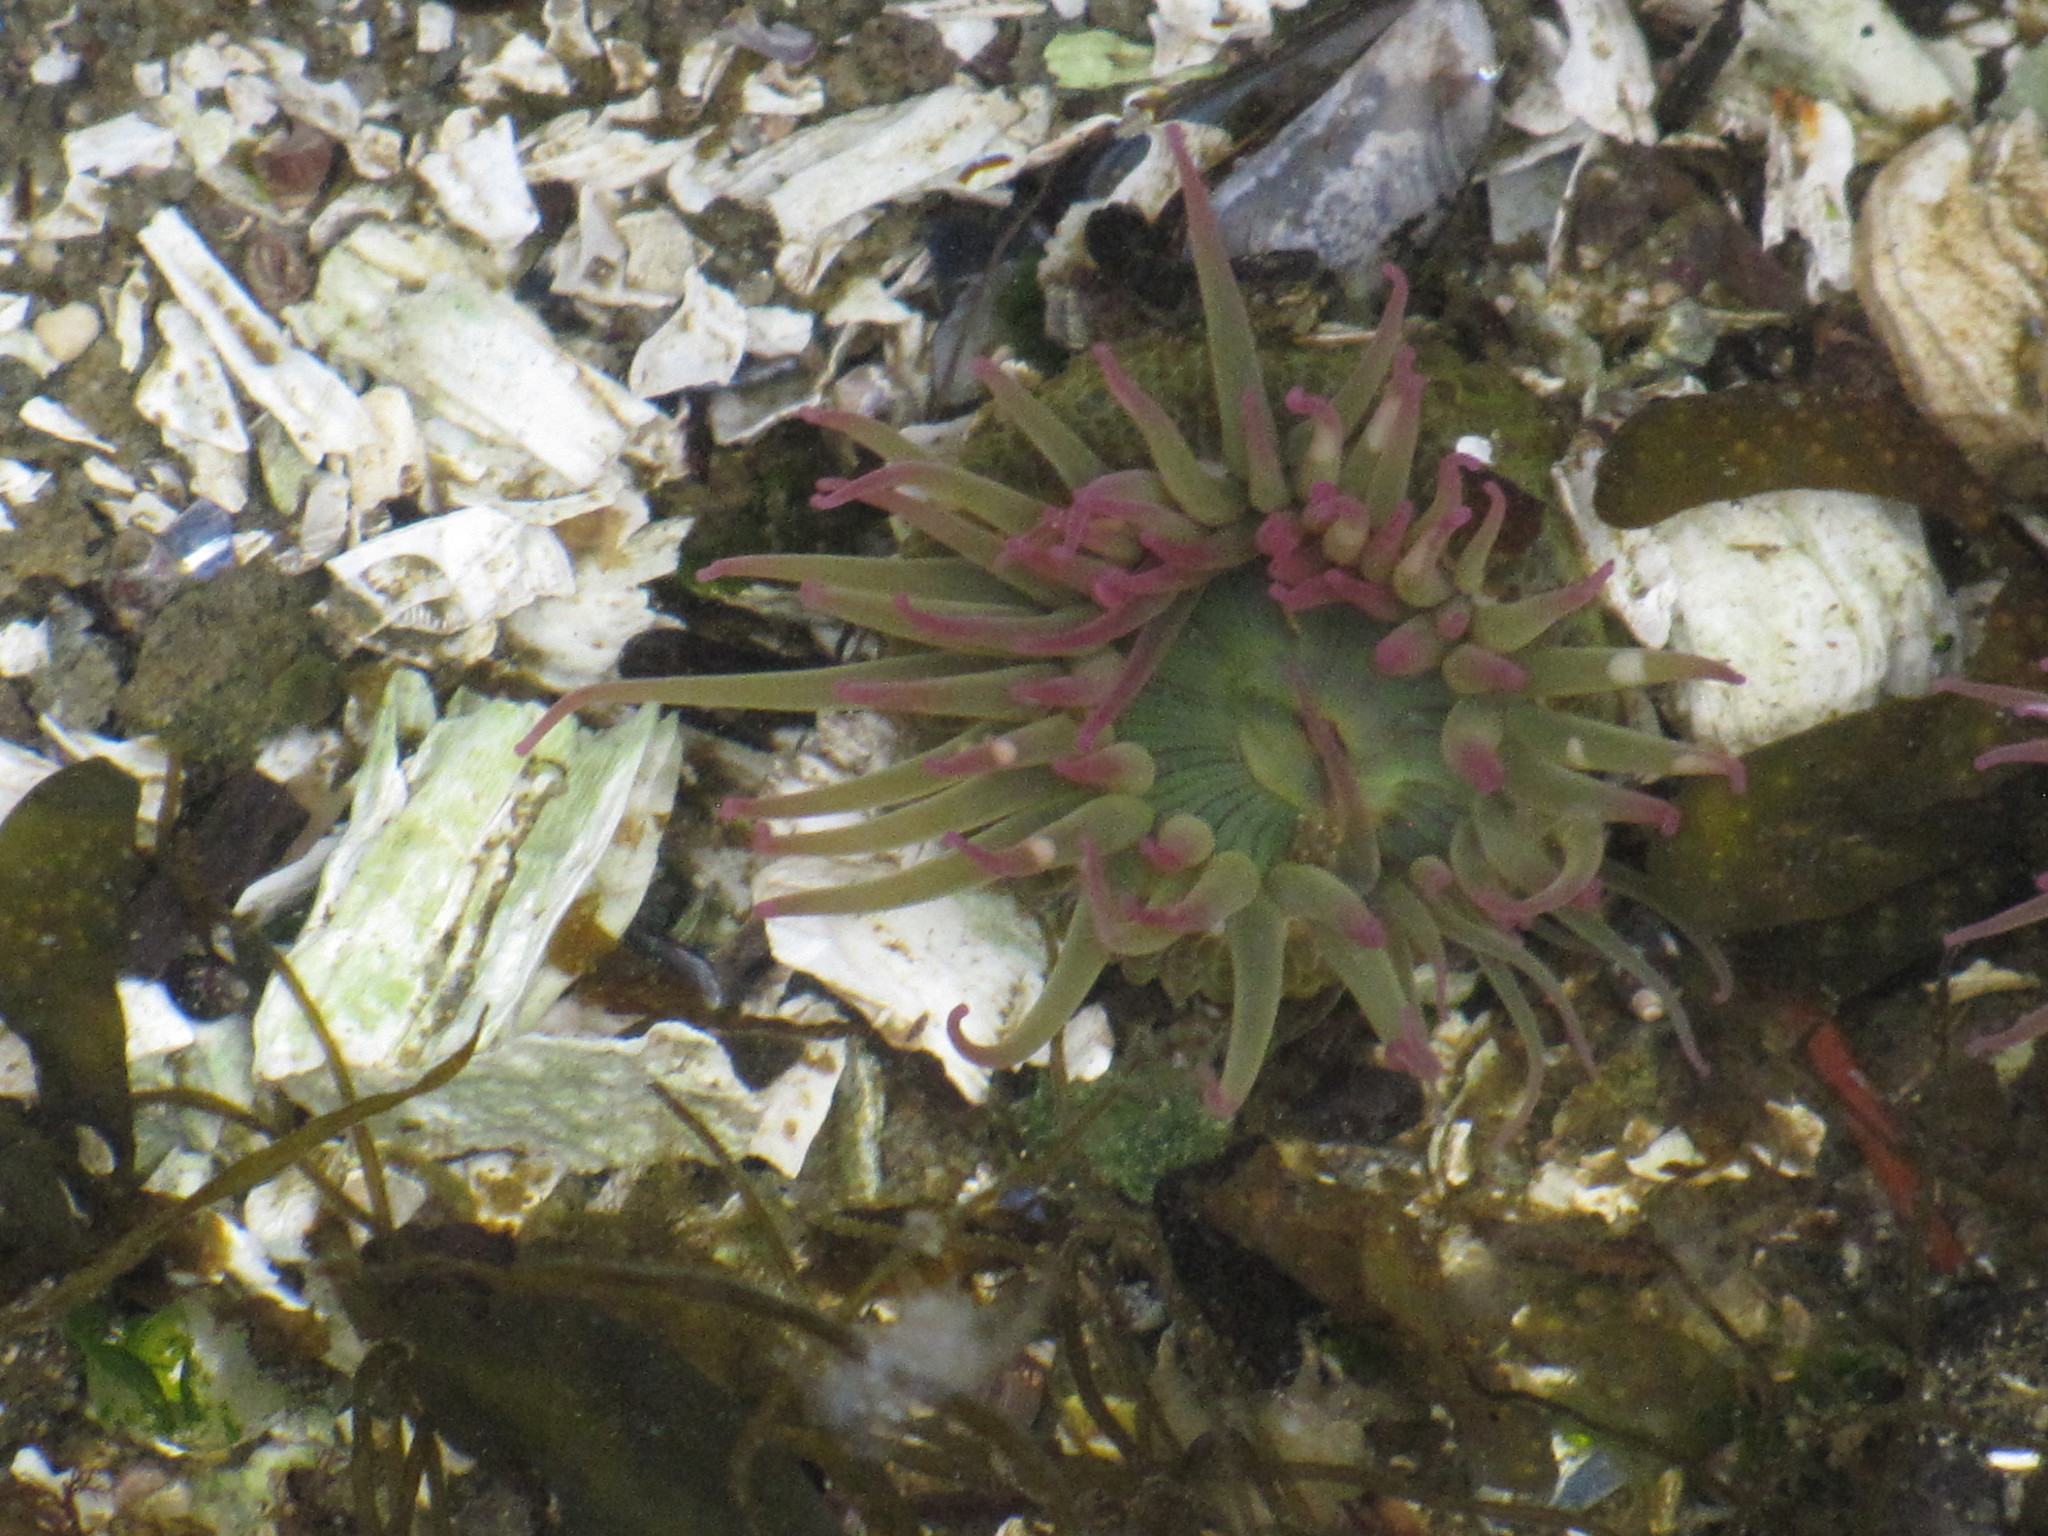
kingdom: Animalia
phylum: Cnidaria
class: Anthozoa
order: Actiniaria
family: Actiniidae
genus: Anthopleura
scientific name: Anthopleura elegantissima
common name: Clonal anemone
